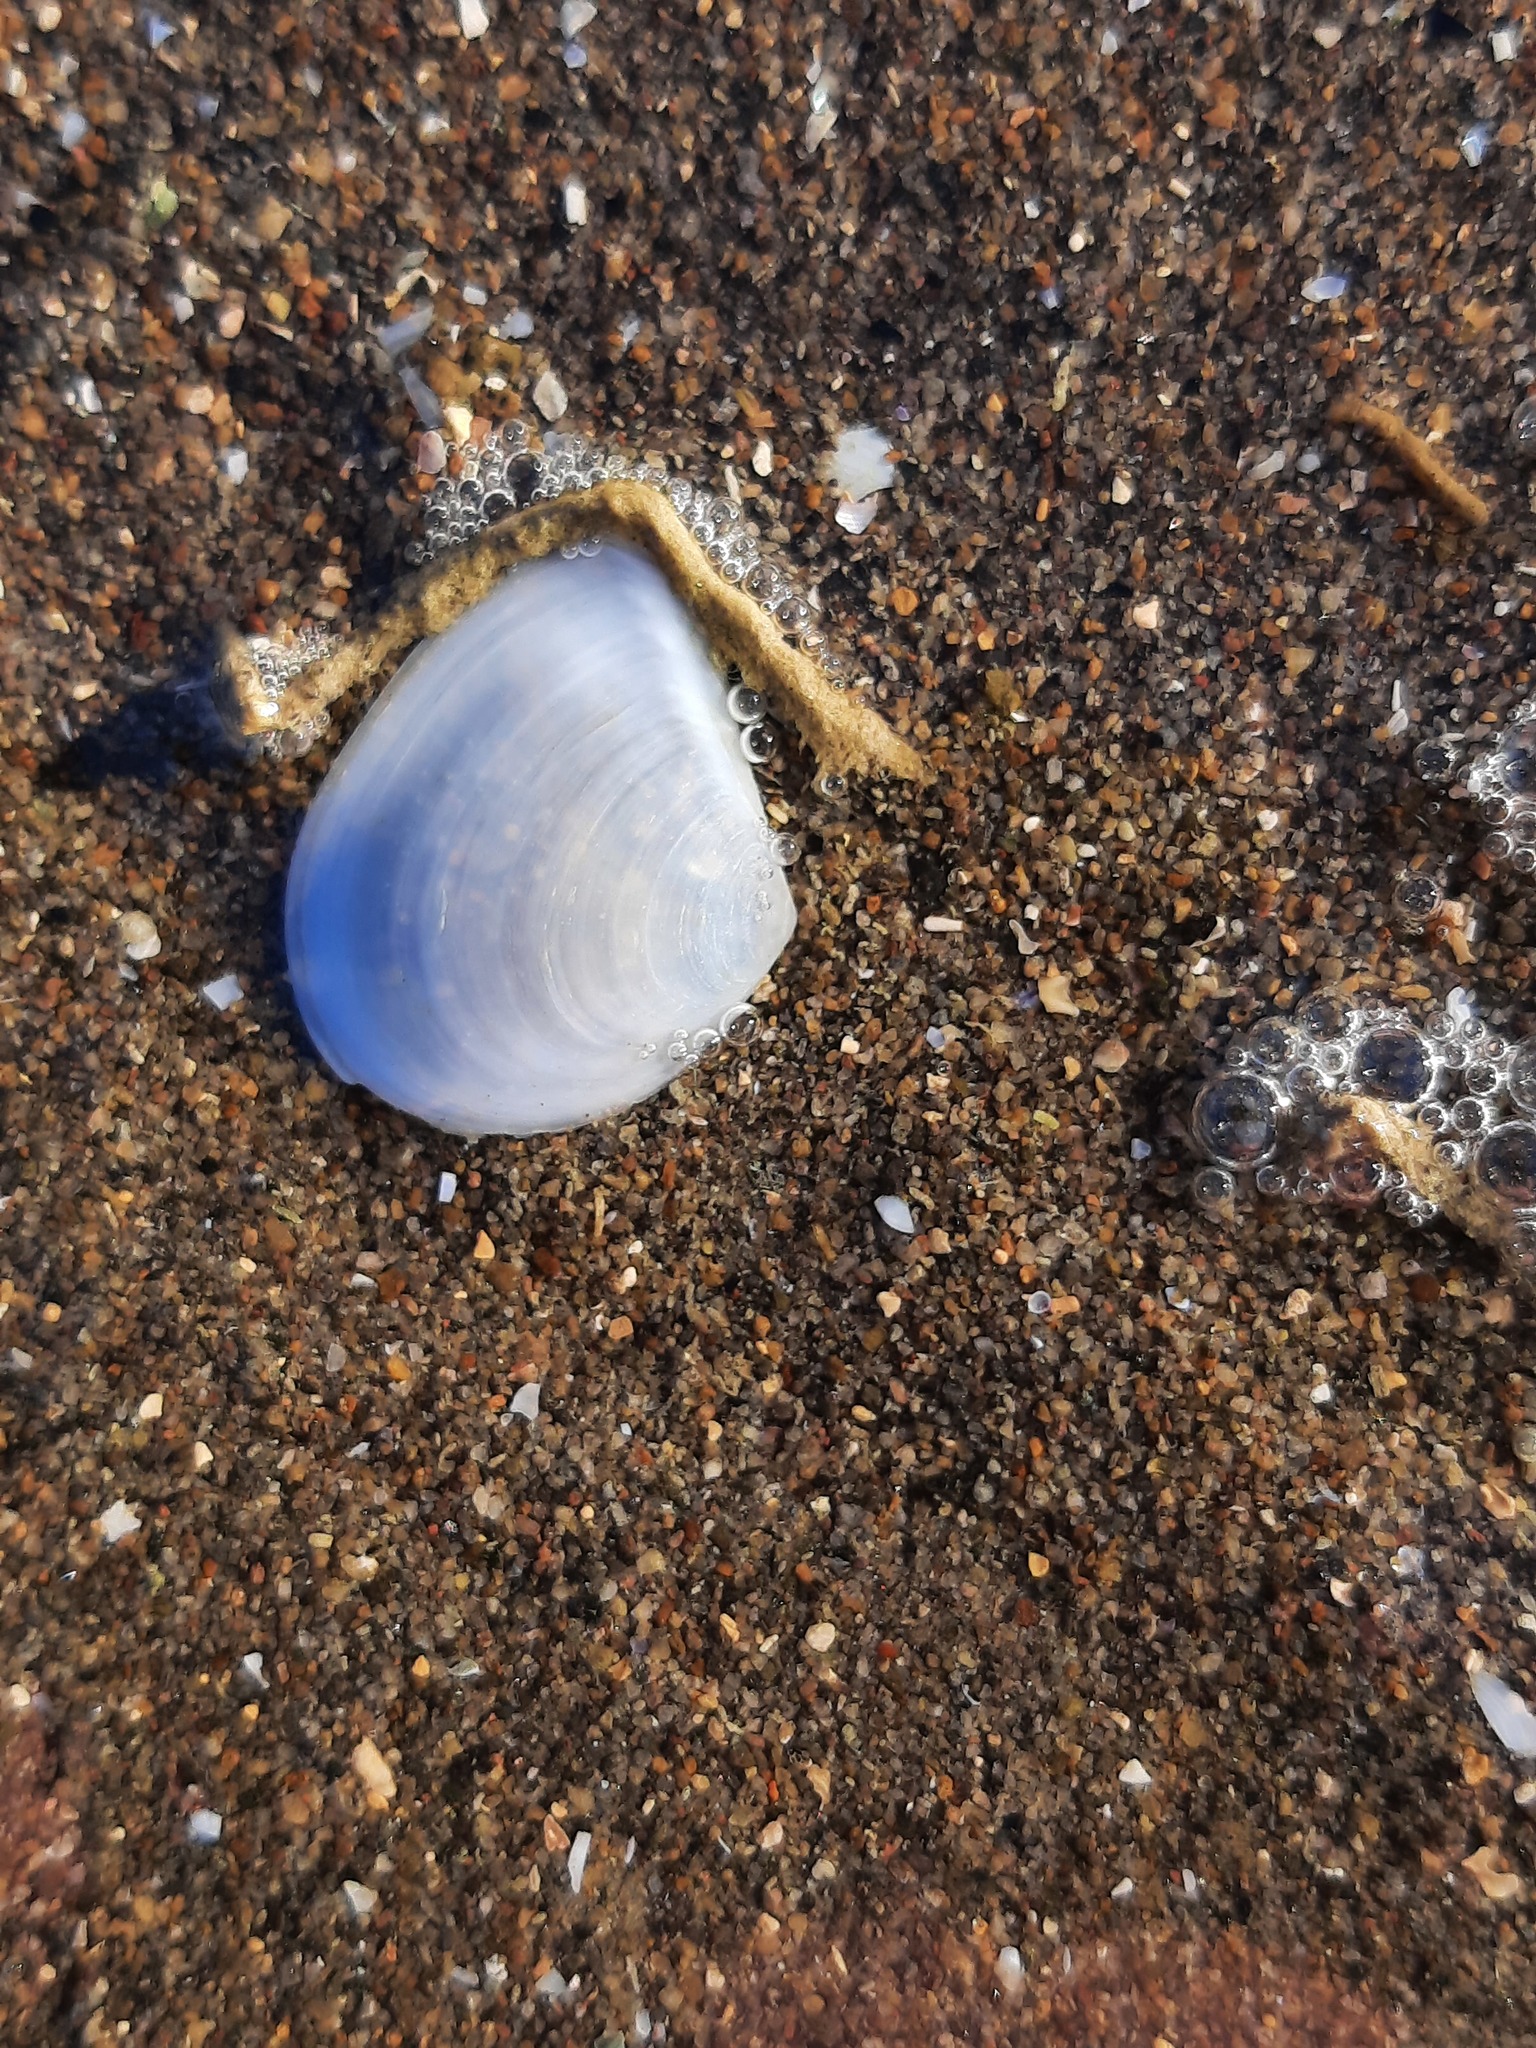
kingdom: Animalia
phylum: Mollusca
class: Bivalvia
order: Cardiida
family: Tellinidae
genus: Macomona
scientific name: Macomona liliana
